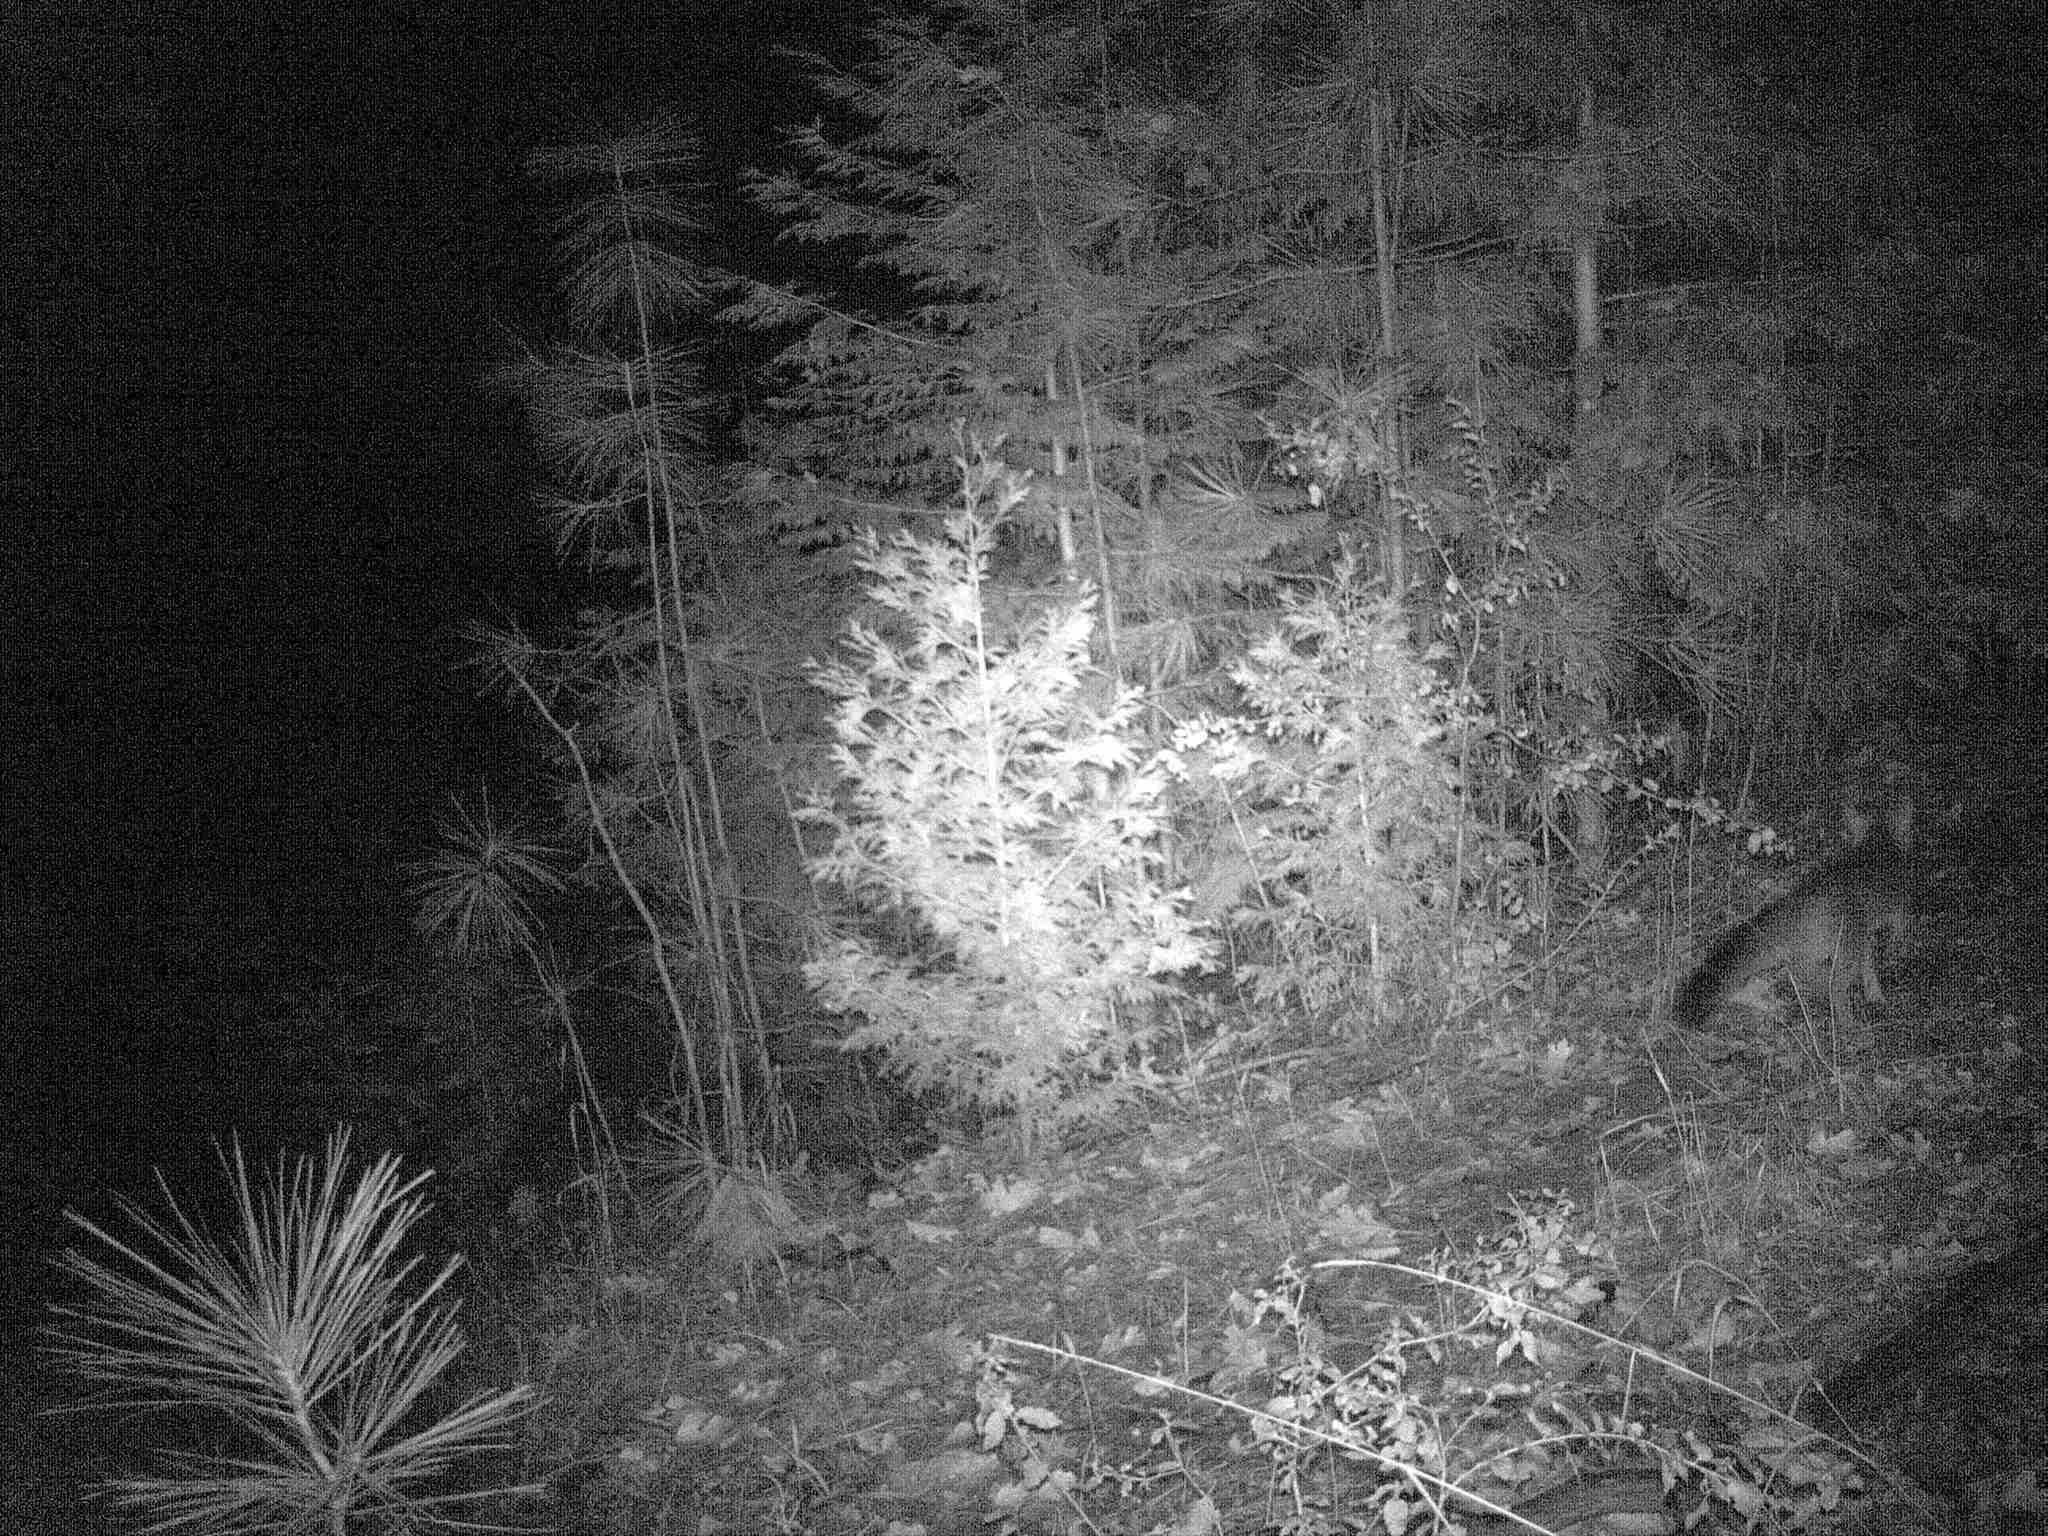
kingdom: Animalia
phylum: Chordata
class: Mammalia
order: Carnivora
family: Canidae
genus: Urocyon
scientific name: Urocyon cinereoargenteus
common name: Gray fox
